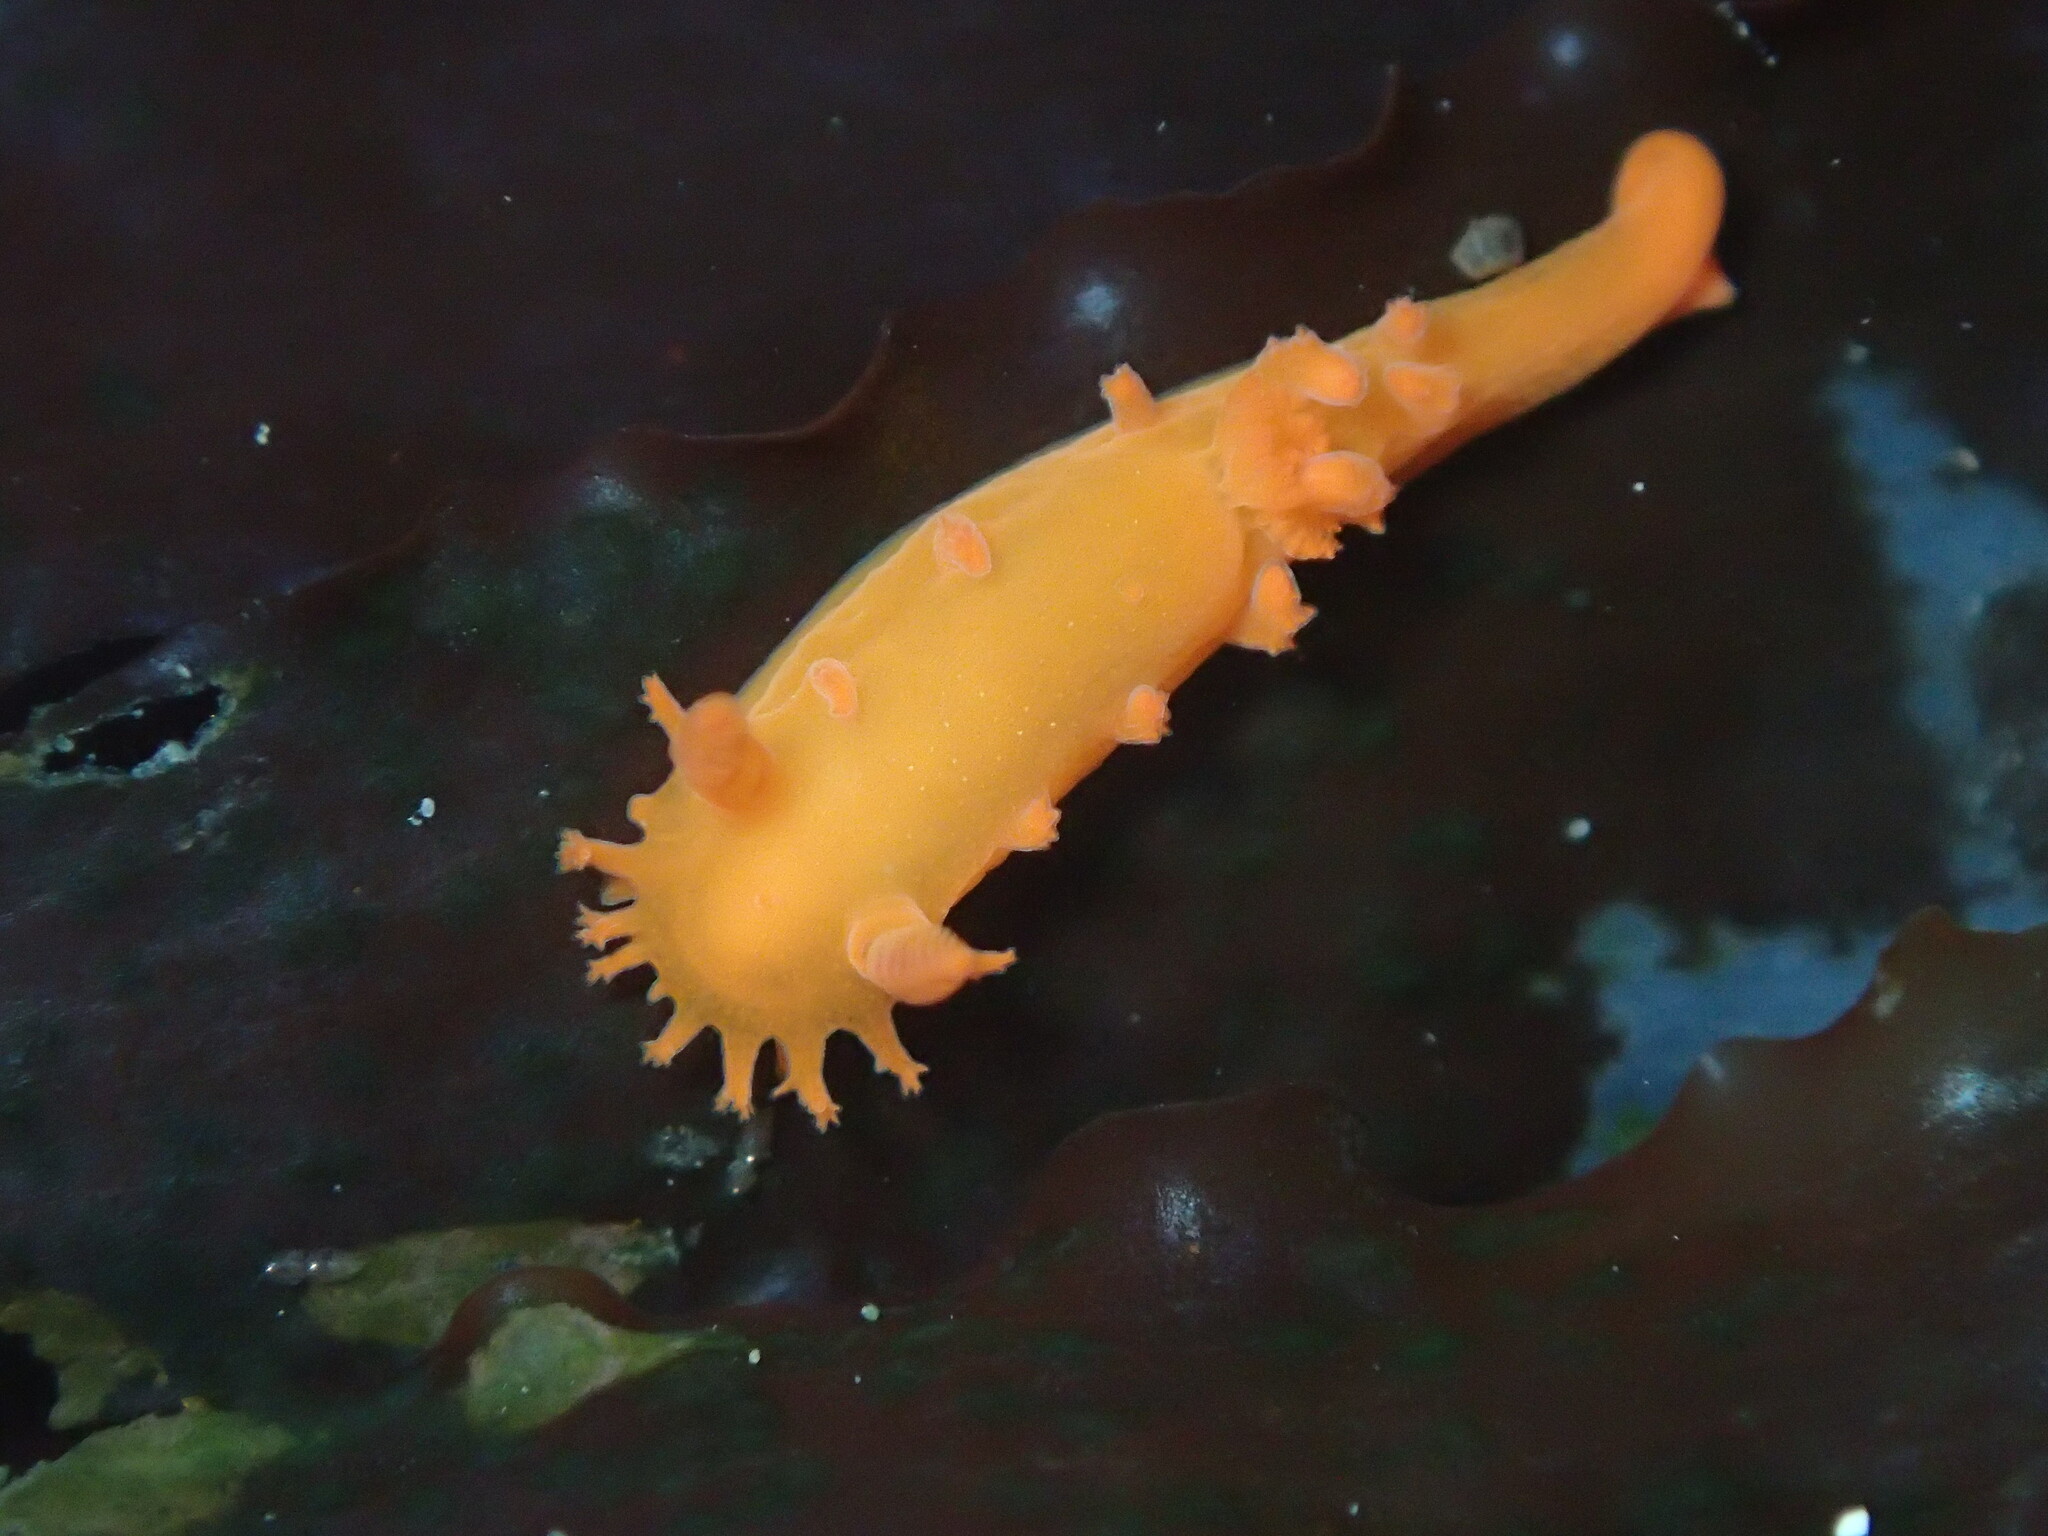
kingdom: Animalia
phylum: Mollusca
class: Gastropoda
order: Nudibranchia
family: Polyceridae
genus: Triopha
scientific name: Triopha maculata
